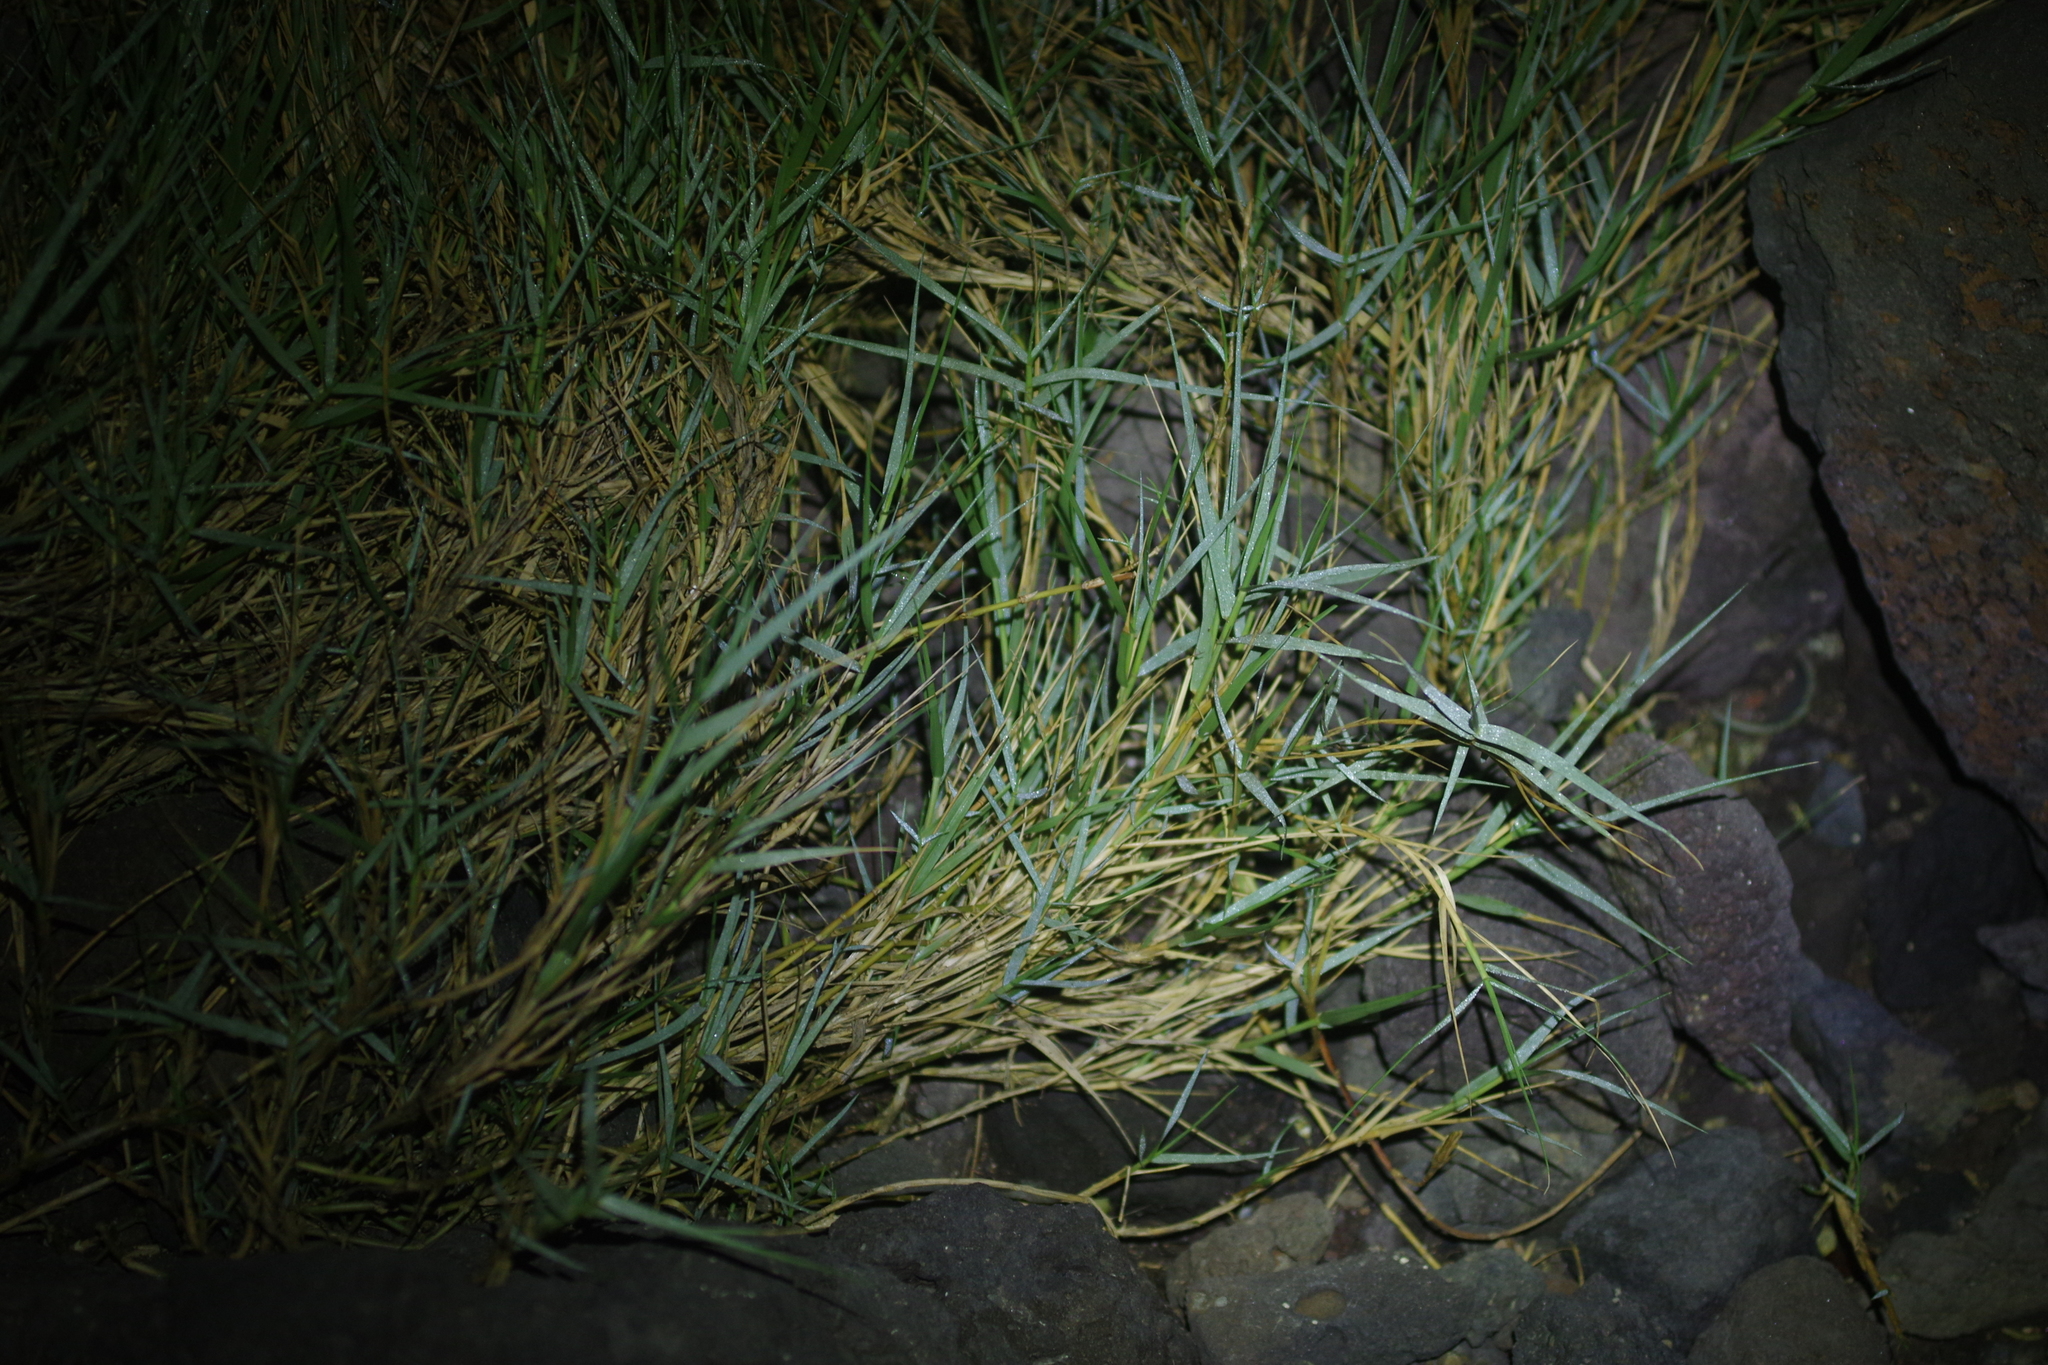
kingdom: Plantae
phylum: Tracheophyta
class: Liliopsida
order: Poales
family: Poaceae
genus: Spinifex
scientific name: Spinifex littoreus
